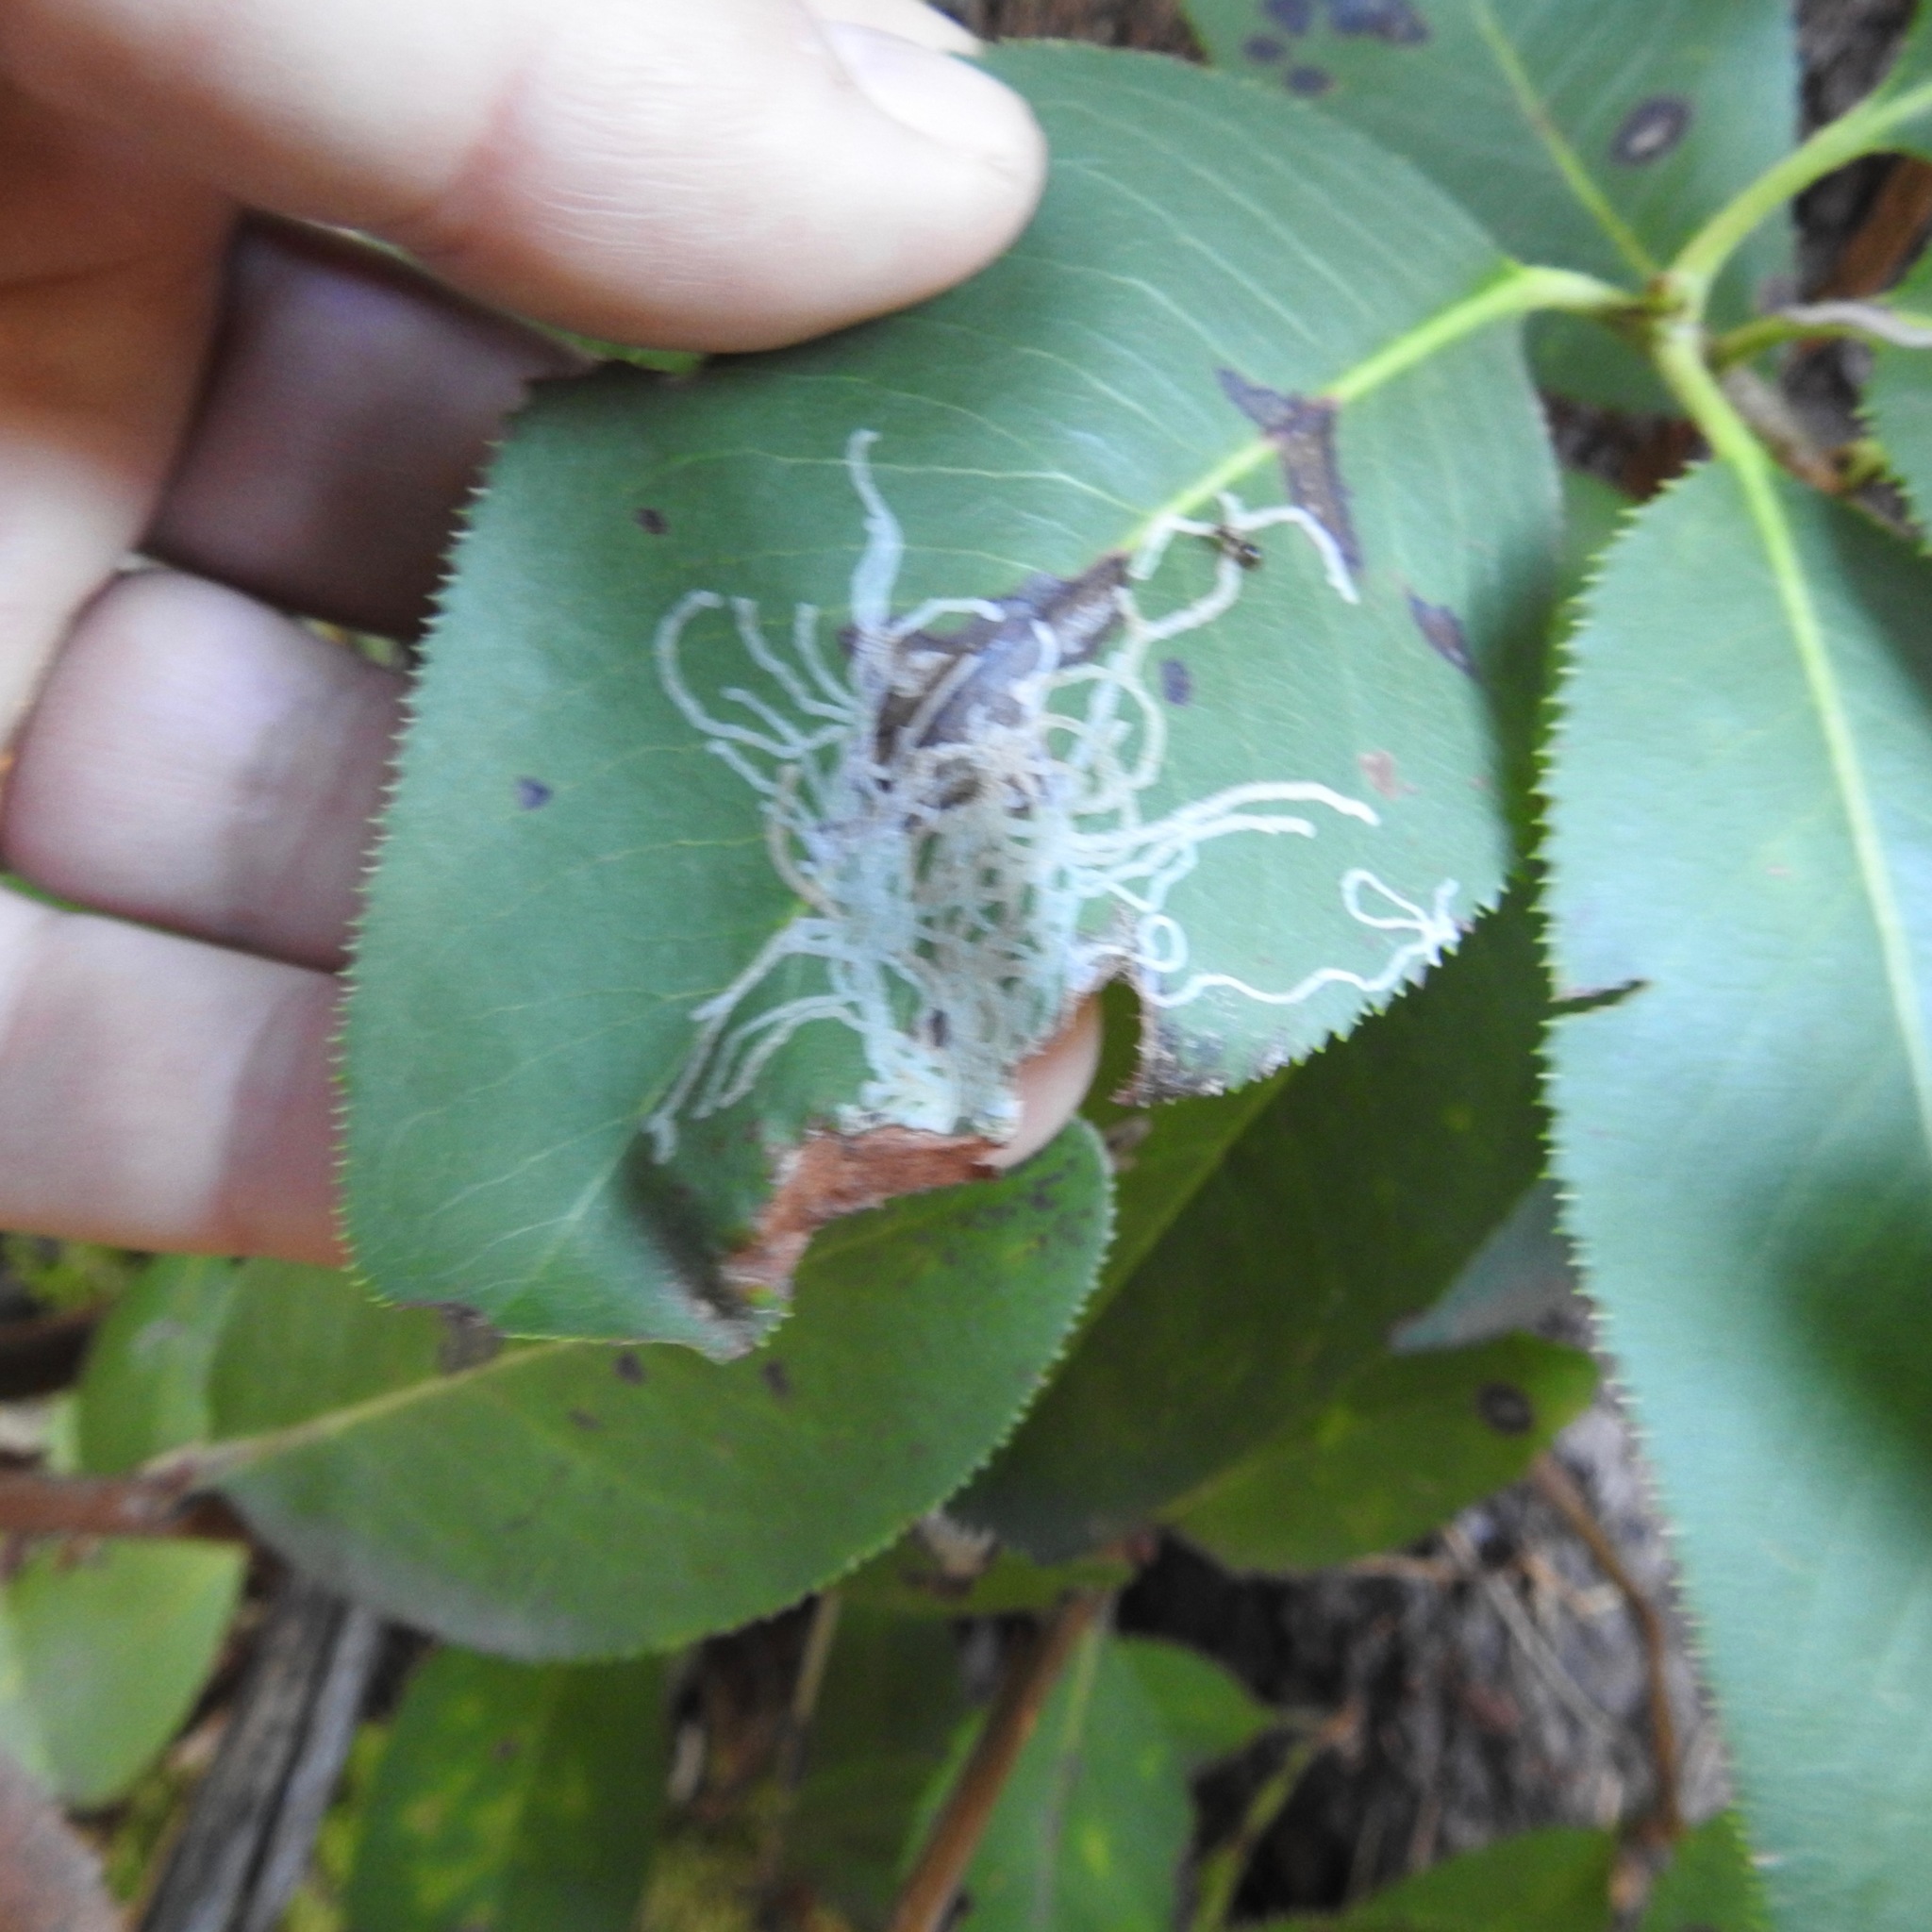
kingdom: Plantae
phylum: Tracheophyta
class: Magnoliopsida
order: Ericales
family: Ericaceae
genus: Arbutus
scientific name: Arbutus menziesii
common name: Pacific madrone
